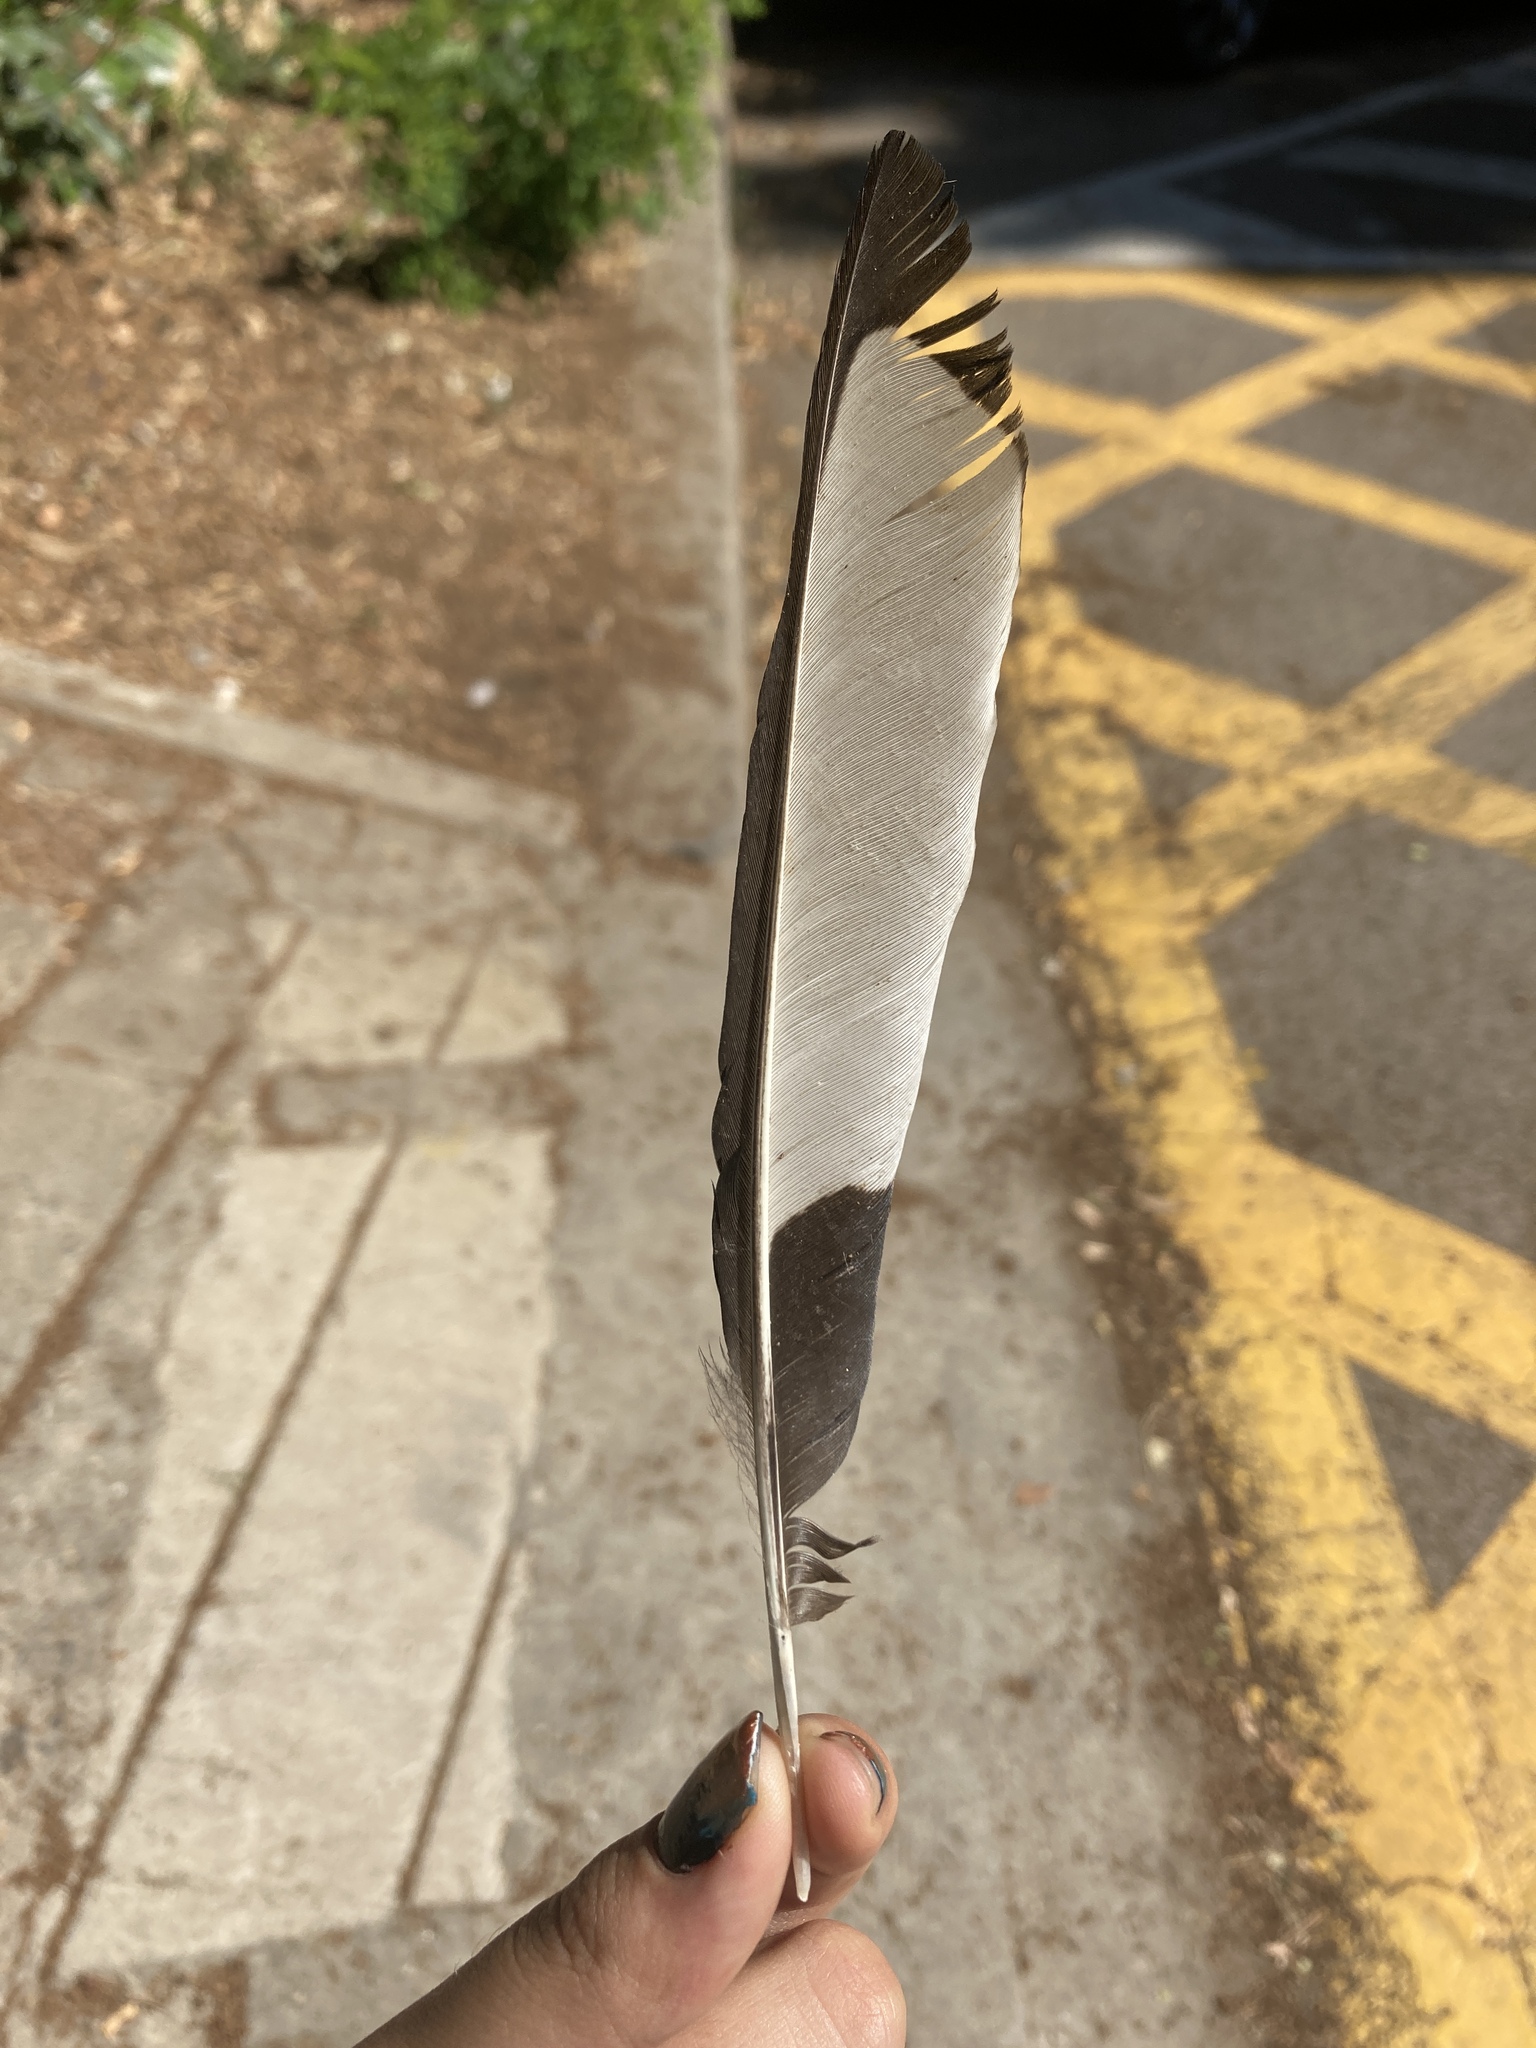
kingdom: Animalia
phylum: Chordata
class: Aves
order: Passeriformes
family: Corvidae
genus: Pica
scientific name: Pica pica
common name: Eurasian magpie
